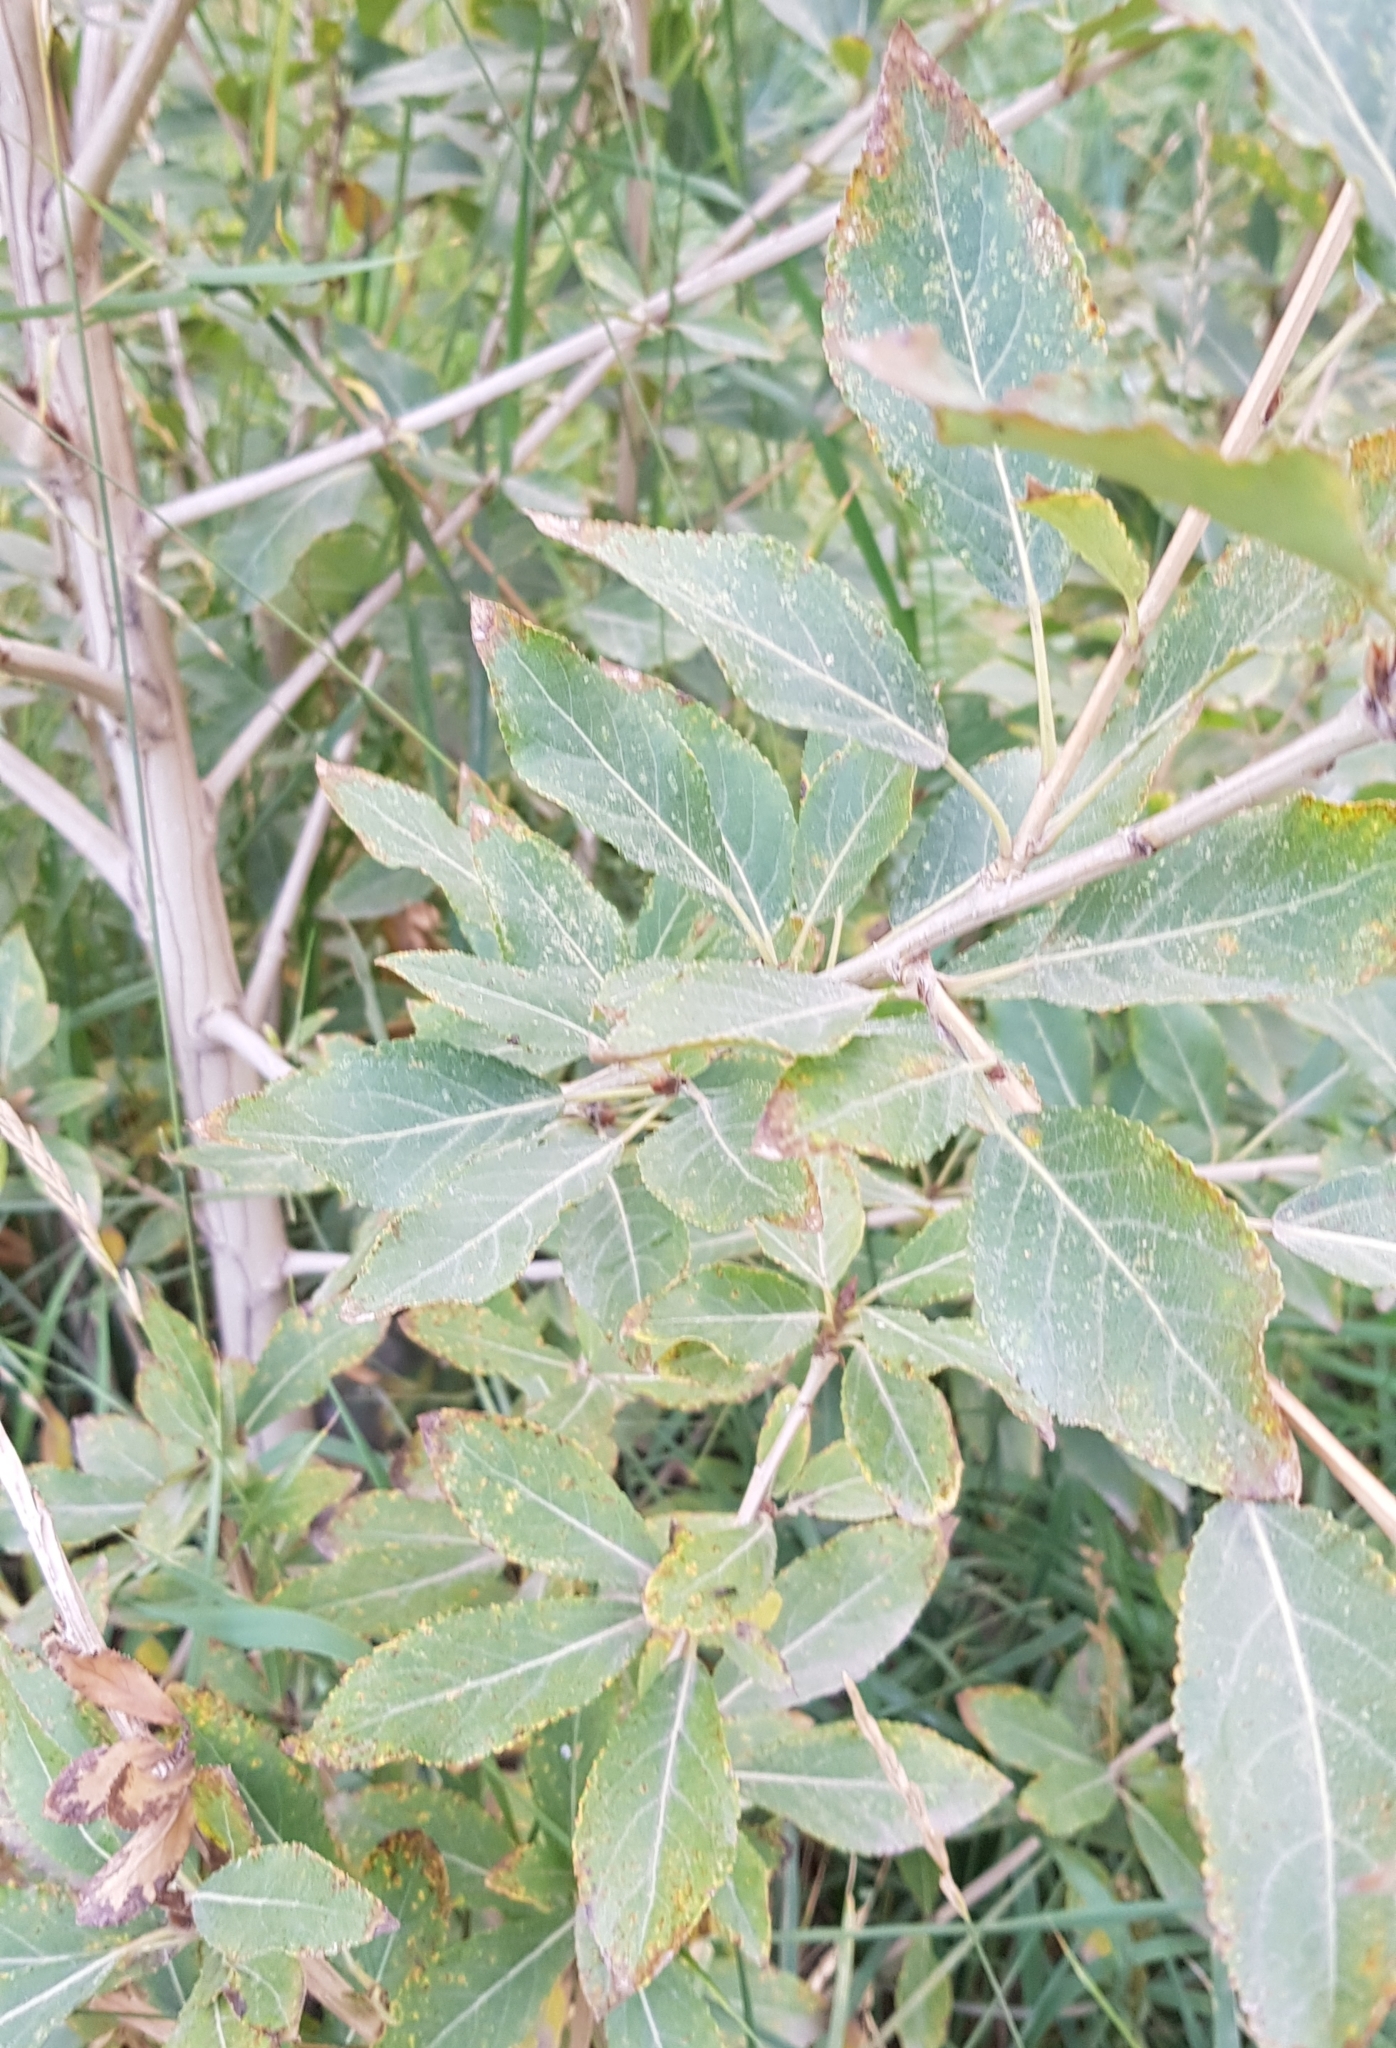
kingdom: Plantae
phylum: Tracheophyta
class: Magnoliopsida
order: Malpighiales
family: Salicaceae
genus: Salix
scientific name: Salix hastata
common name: Halberd willow
